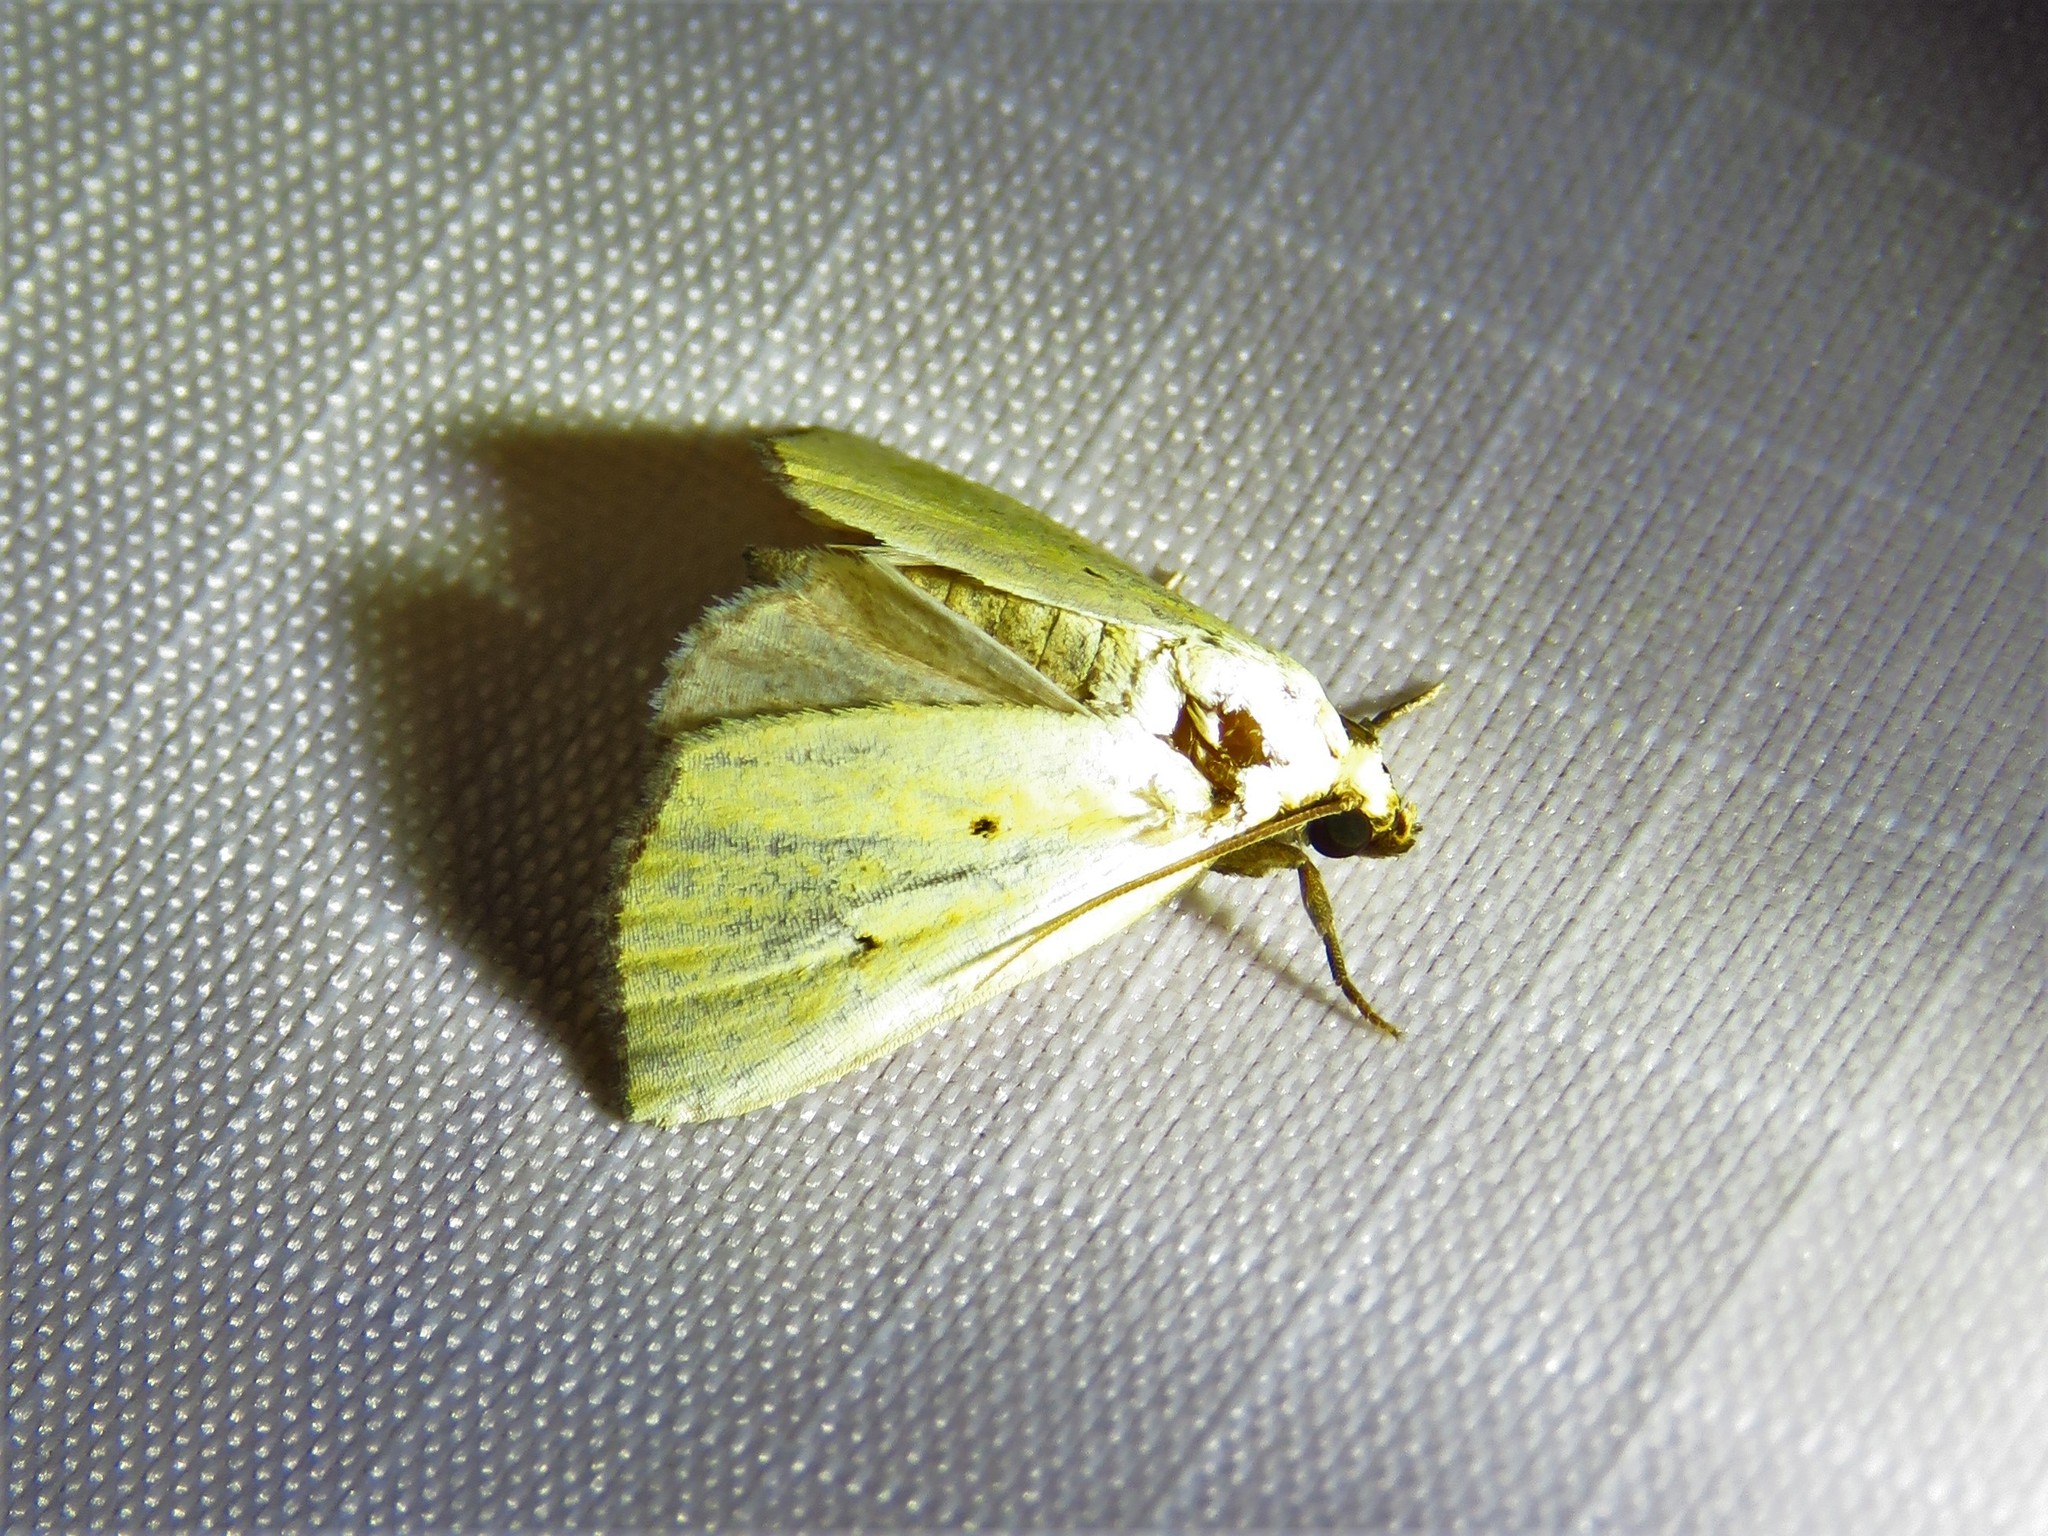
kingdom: Animalia
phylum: Arthropoda
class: Insecta
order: Lepidoptera
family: Noctuidae
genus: Marimatha
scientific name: Marimatha nigrofimbria
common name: Black-bordered lemon moth
